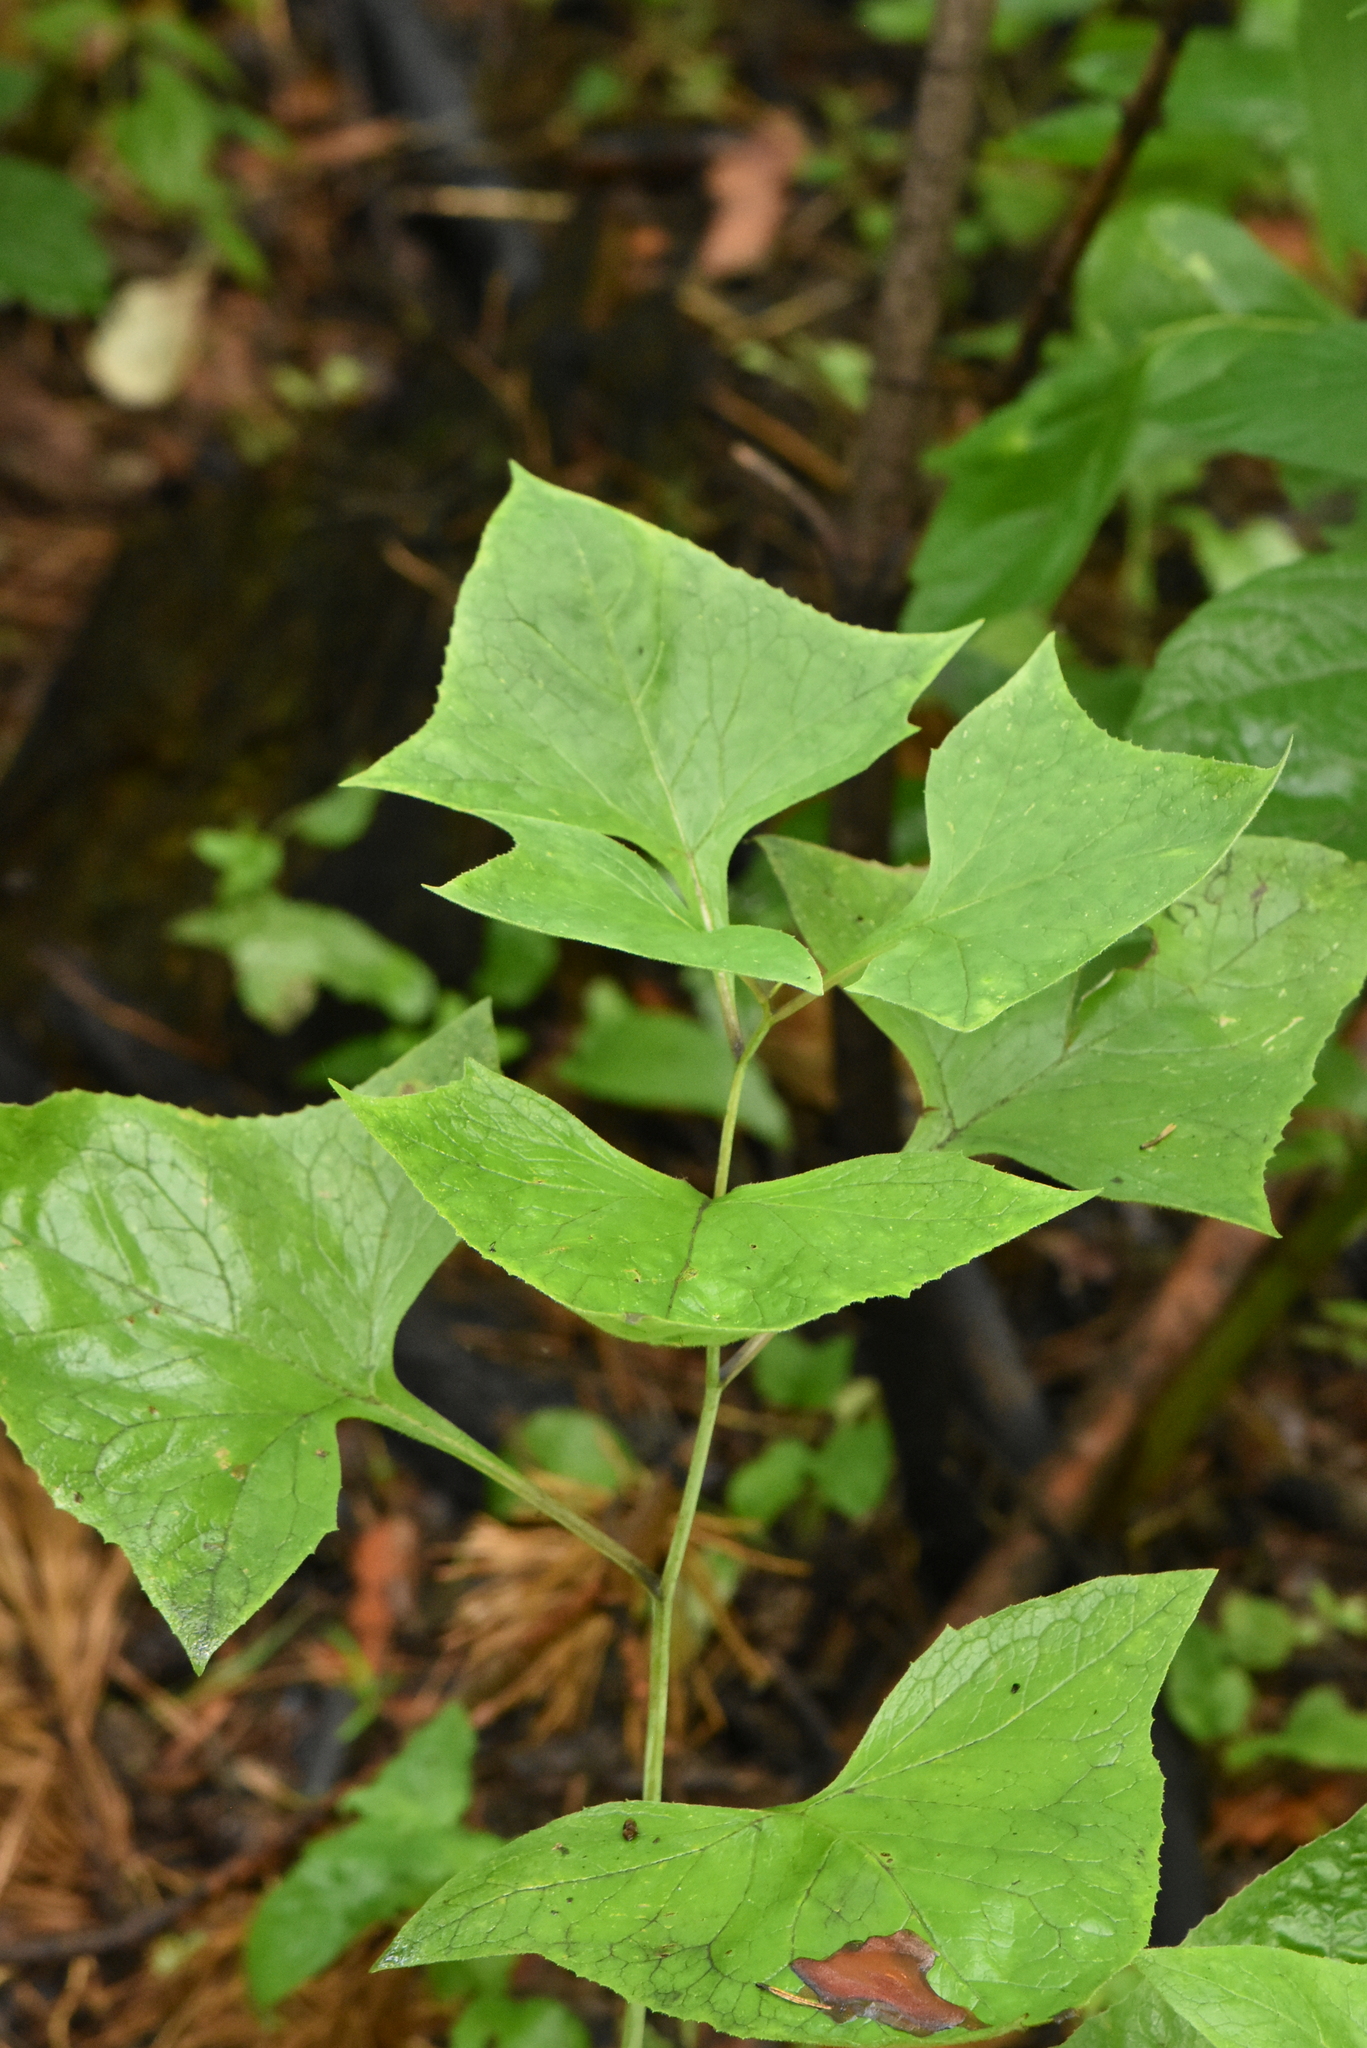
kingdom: Plantae
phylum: Tracheophyta
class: Magnoliopsida
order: Asterales
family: Asteraceae
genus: Parasenecio
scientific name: Parasenecio hastatus
